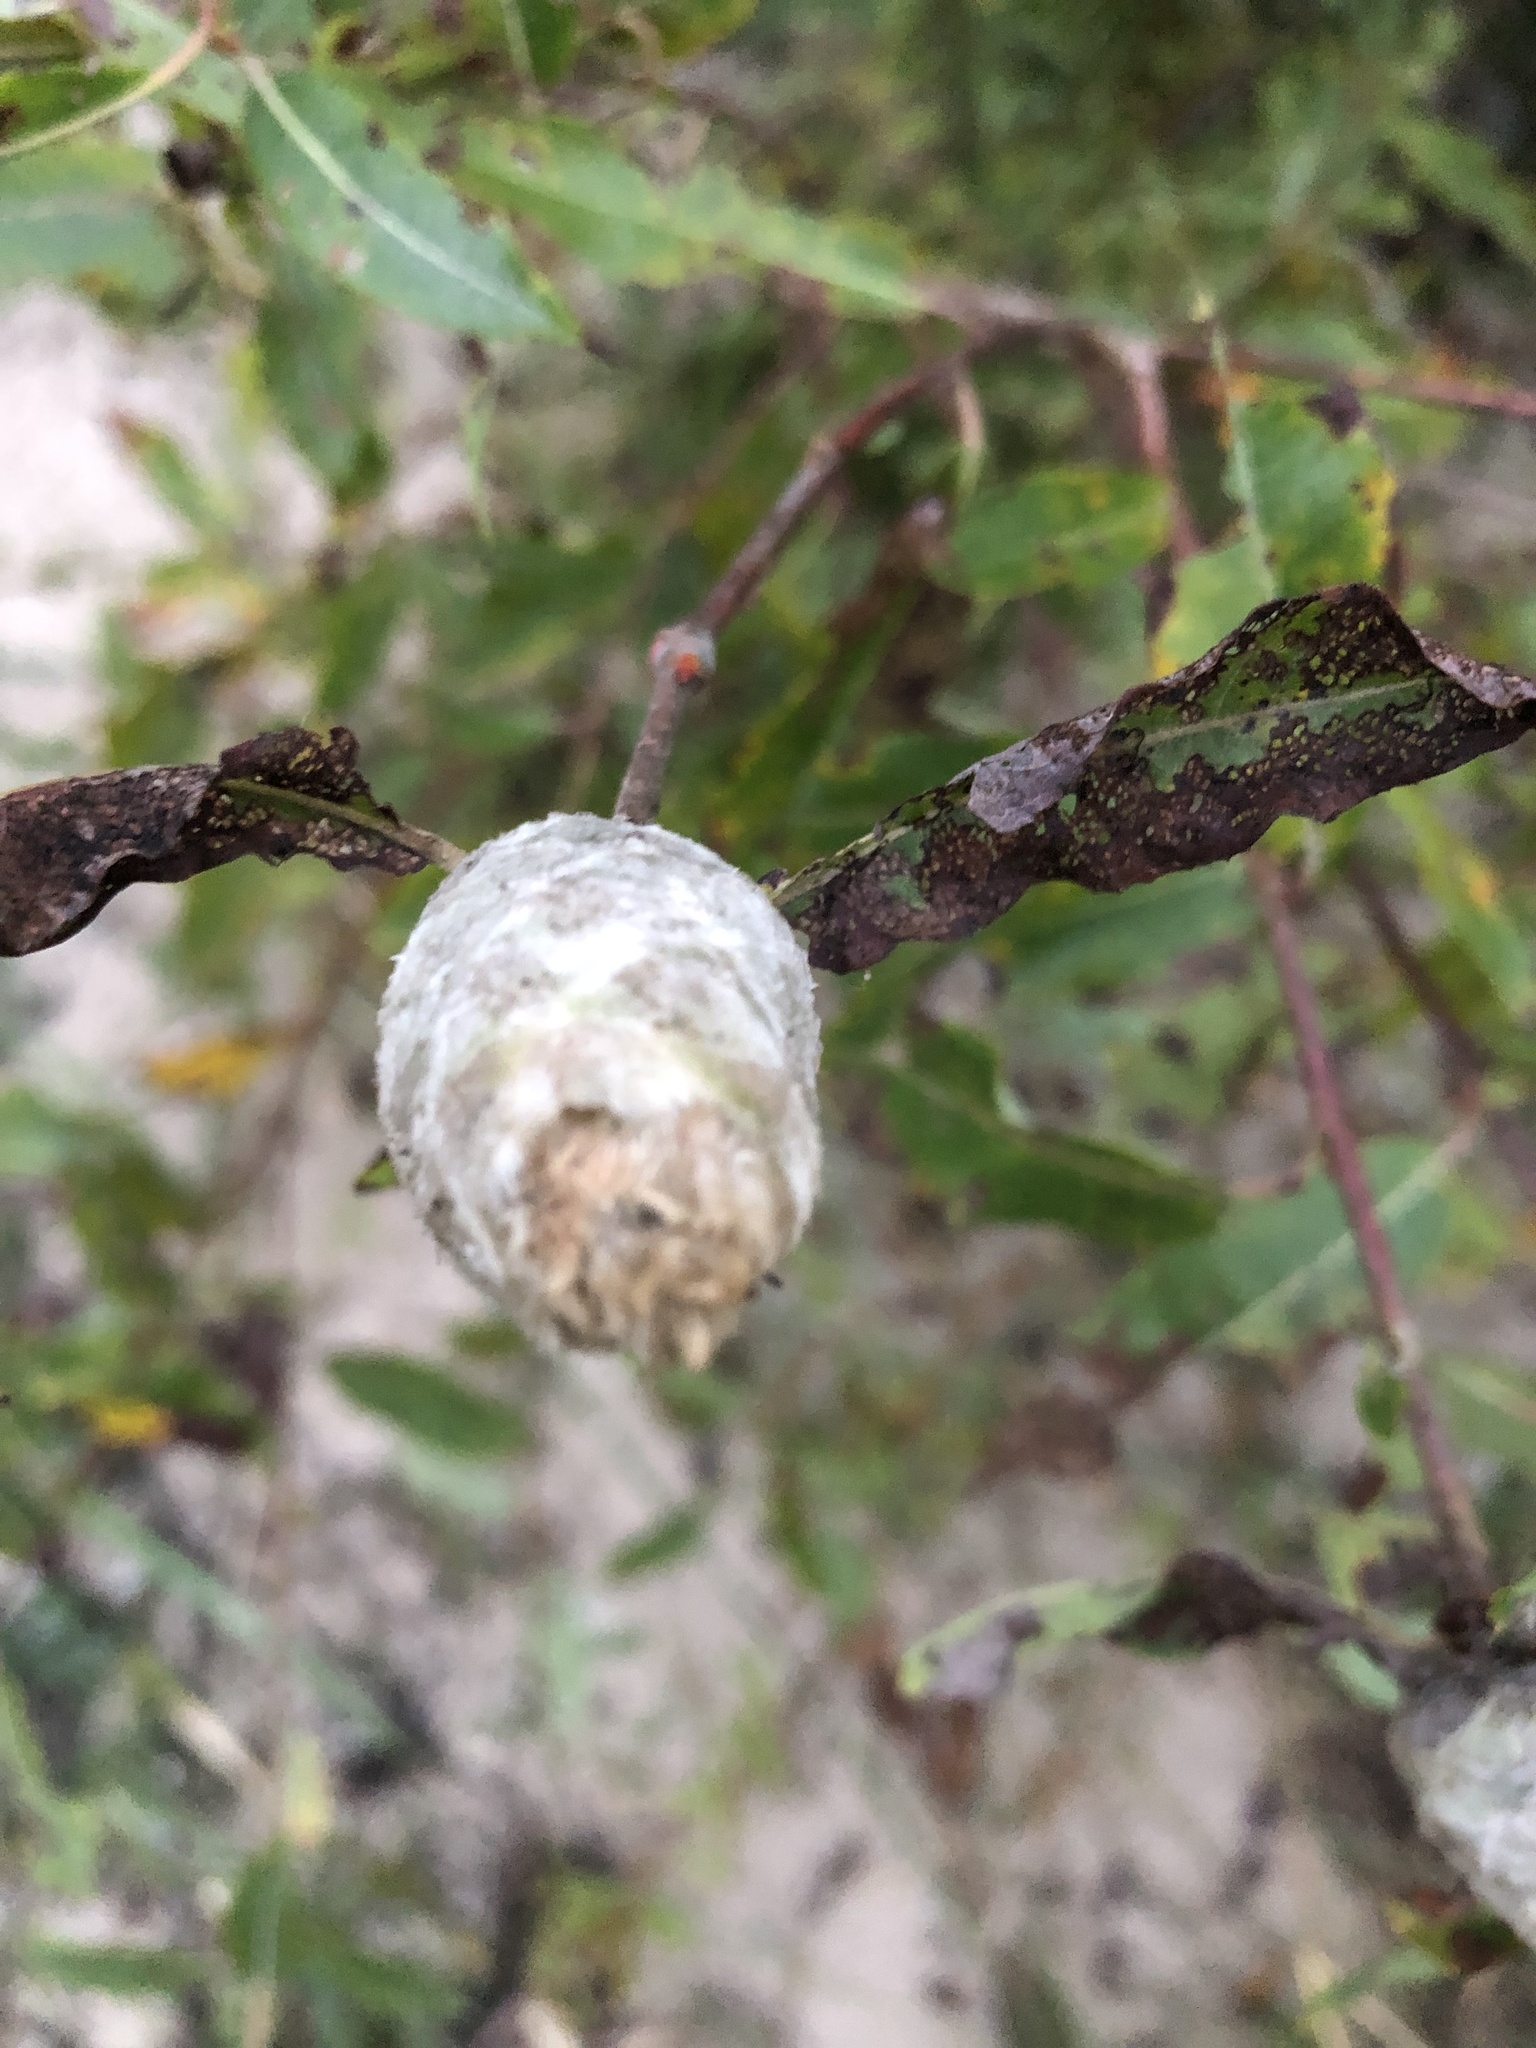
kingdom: Animalia
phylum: Arthropoda
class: Insecta
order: Diptera
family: Cecidomyiidae
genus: Rabdophaga
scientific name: Rabdophaga strobiloides
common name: Willow pinecone gall midge
